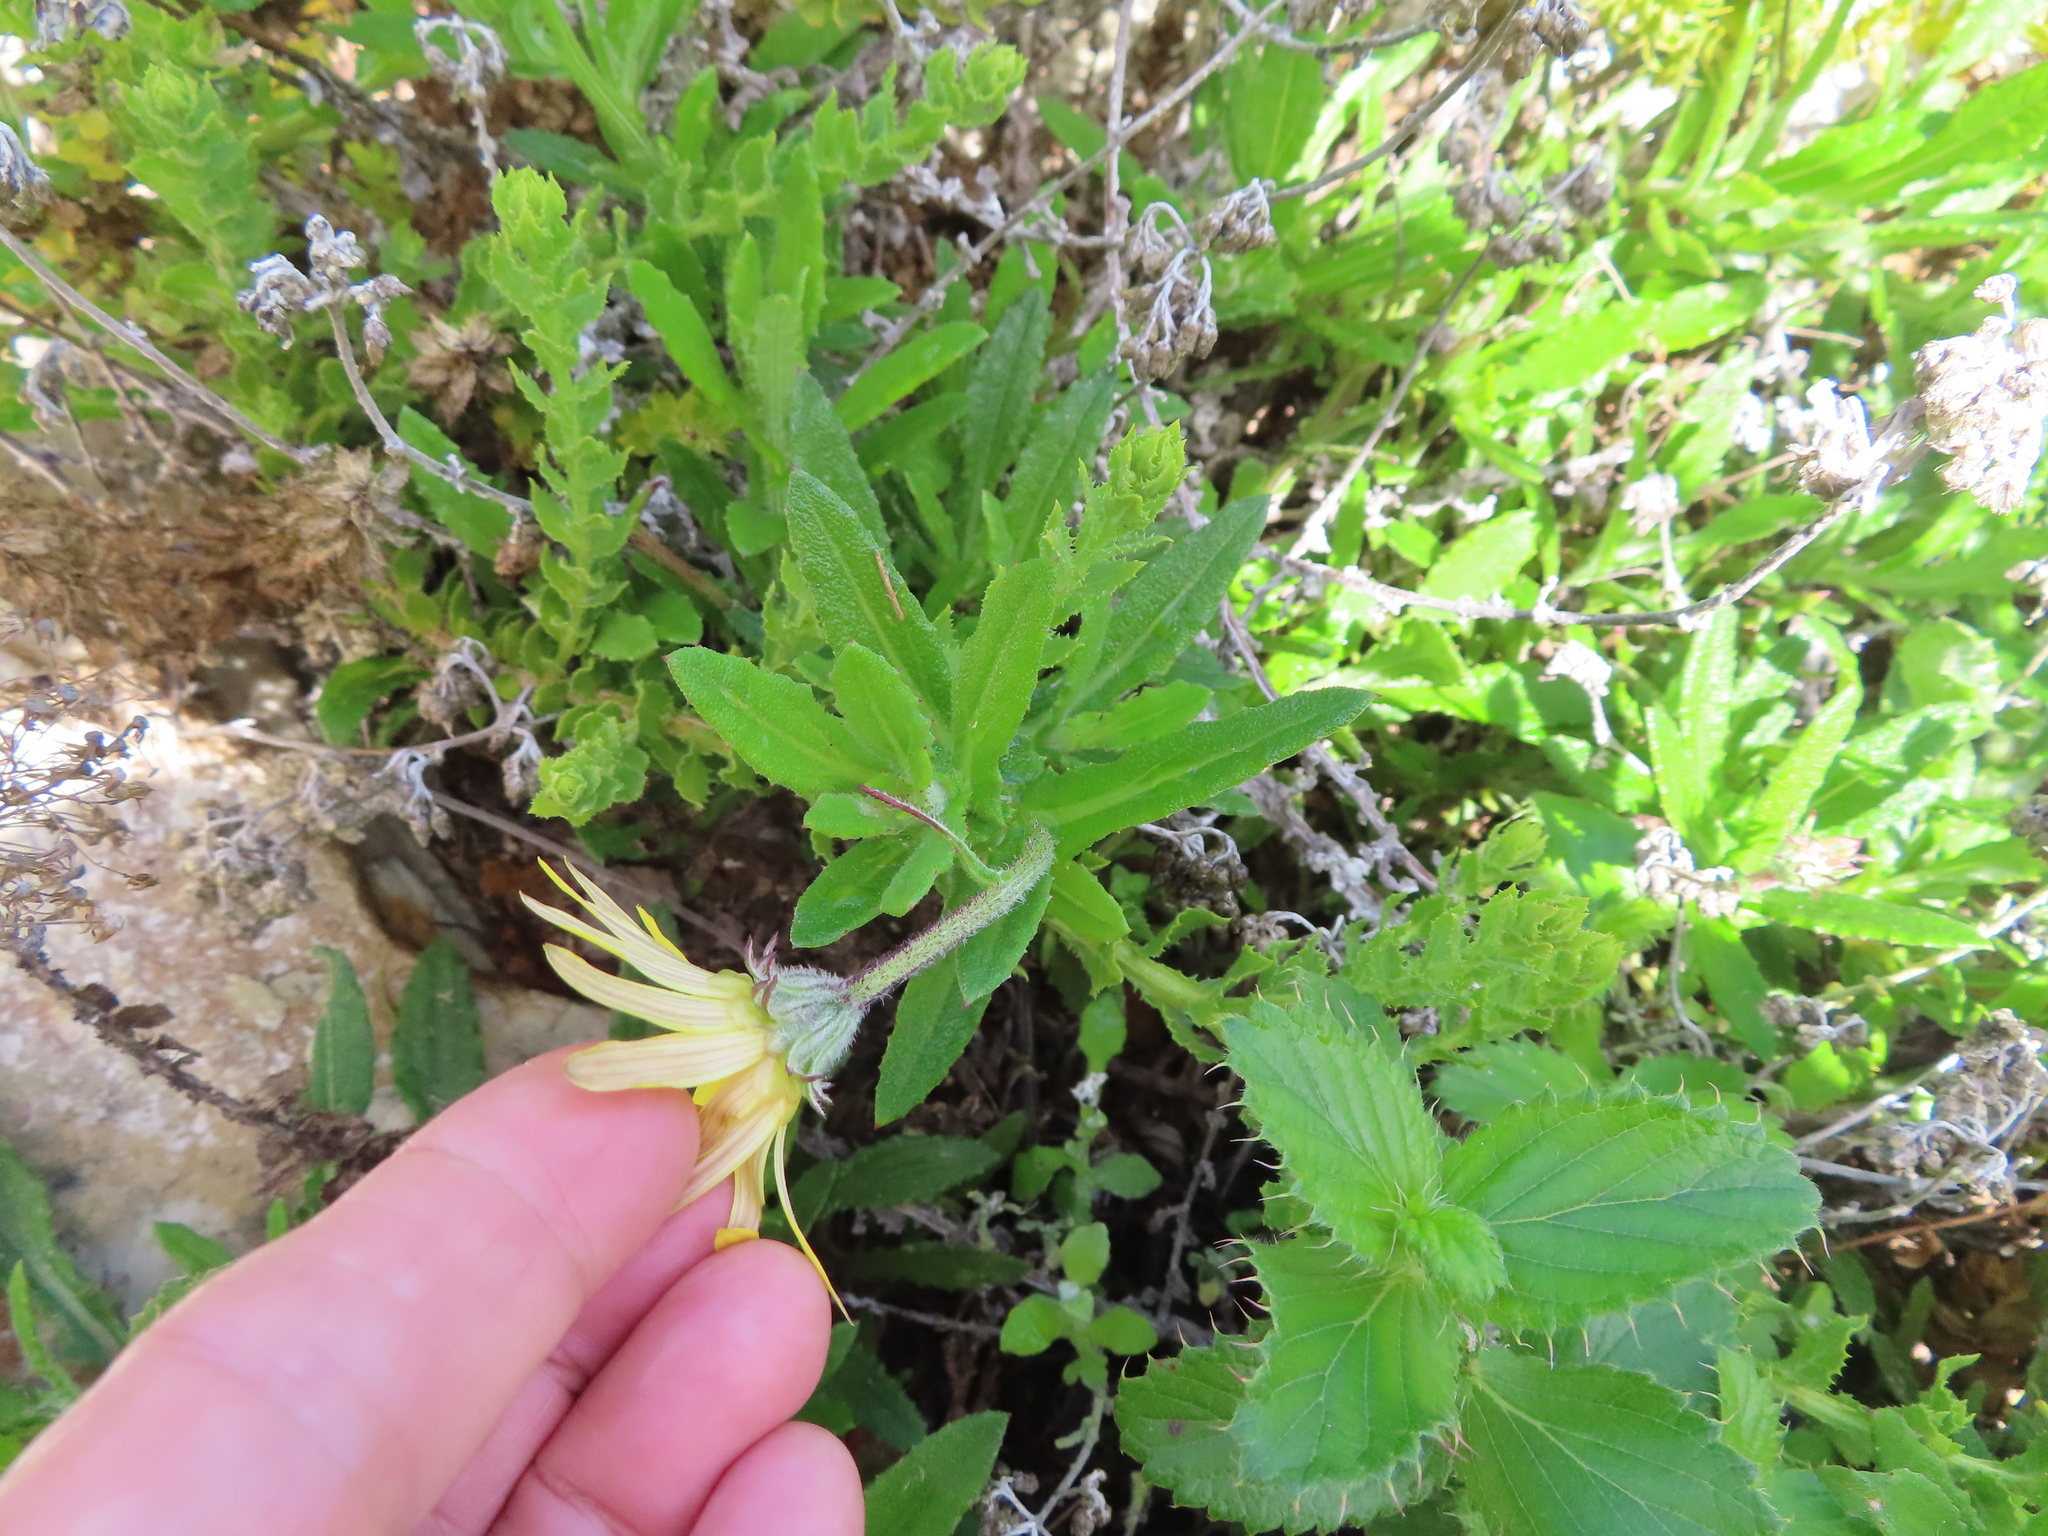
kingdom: Plantae
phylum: Tracheophyta
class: Magnoliopsida
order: Asterales
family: Asteraceae
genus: Arctotis
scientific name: Arctotis scabra
